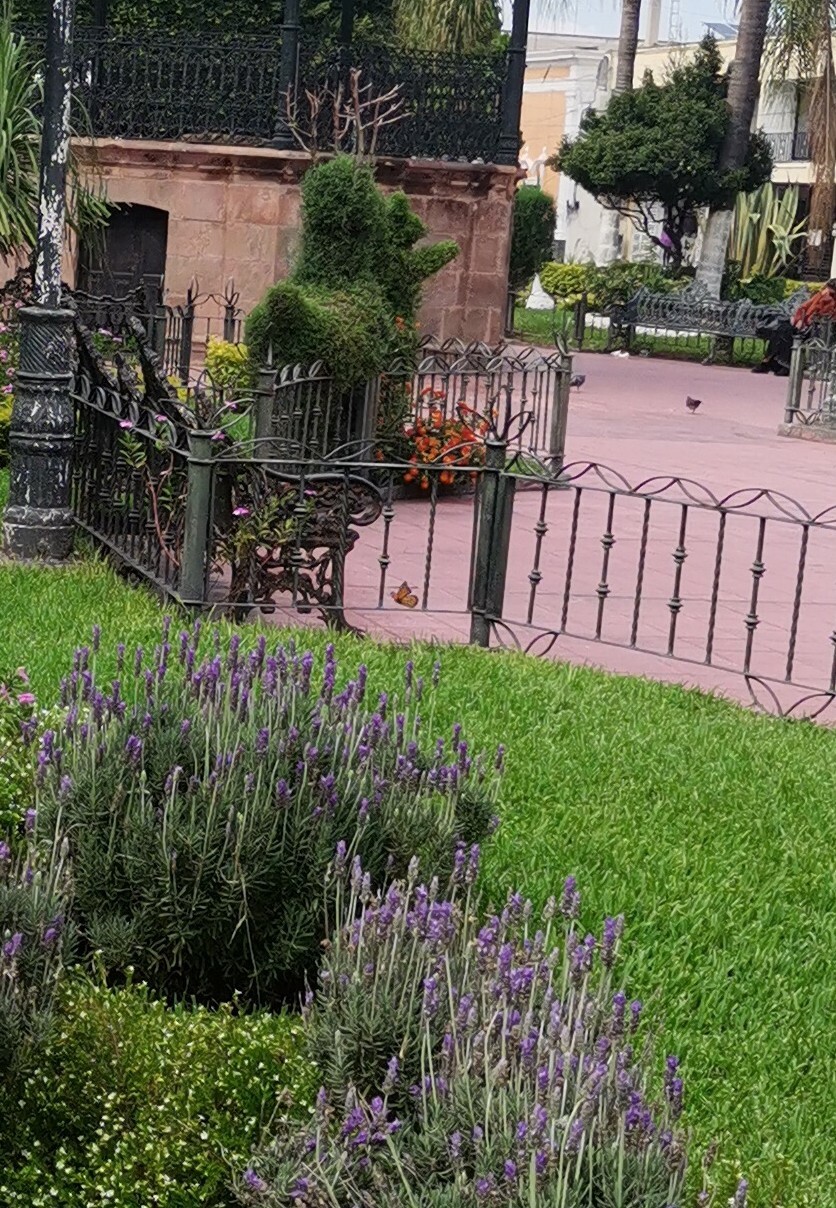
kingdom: Animalia
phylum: Arthropoda
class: Insecta
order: Lepidoptera
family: Nymphalidae
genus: Danaus
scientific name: Danaus plexippus
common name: Monarch
